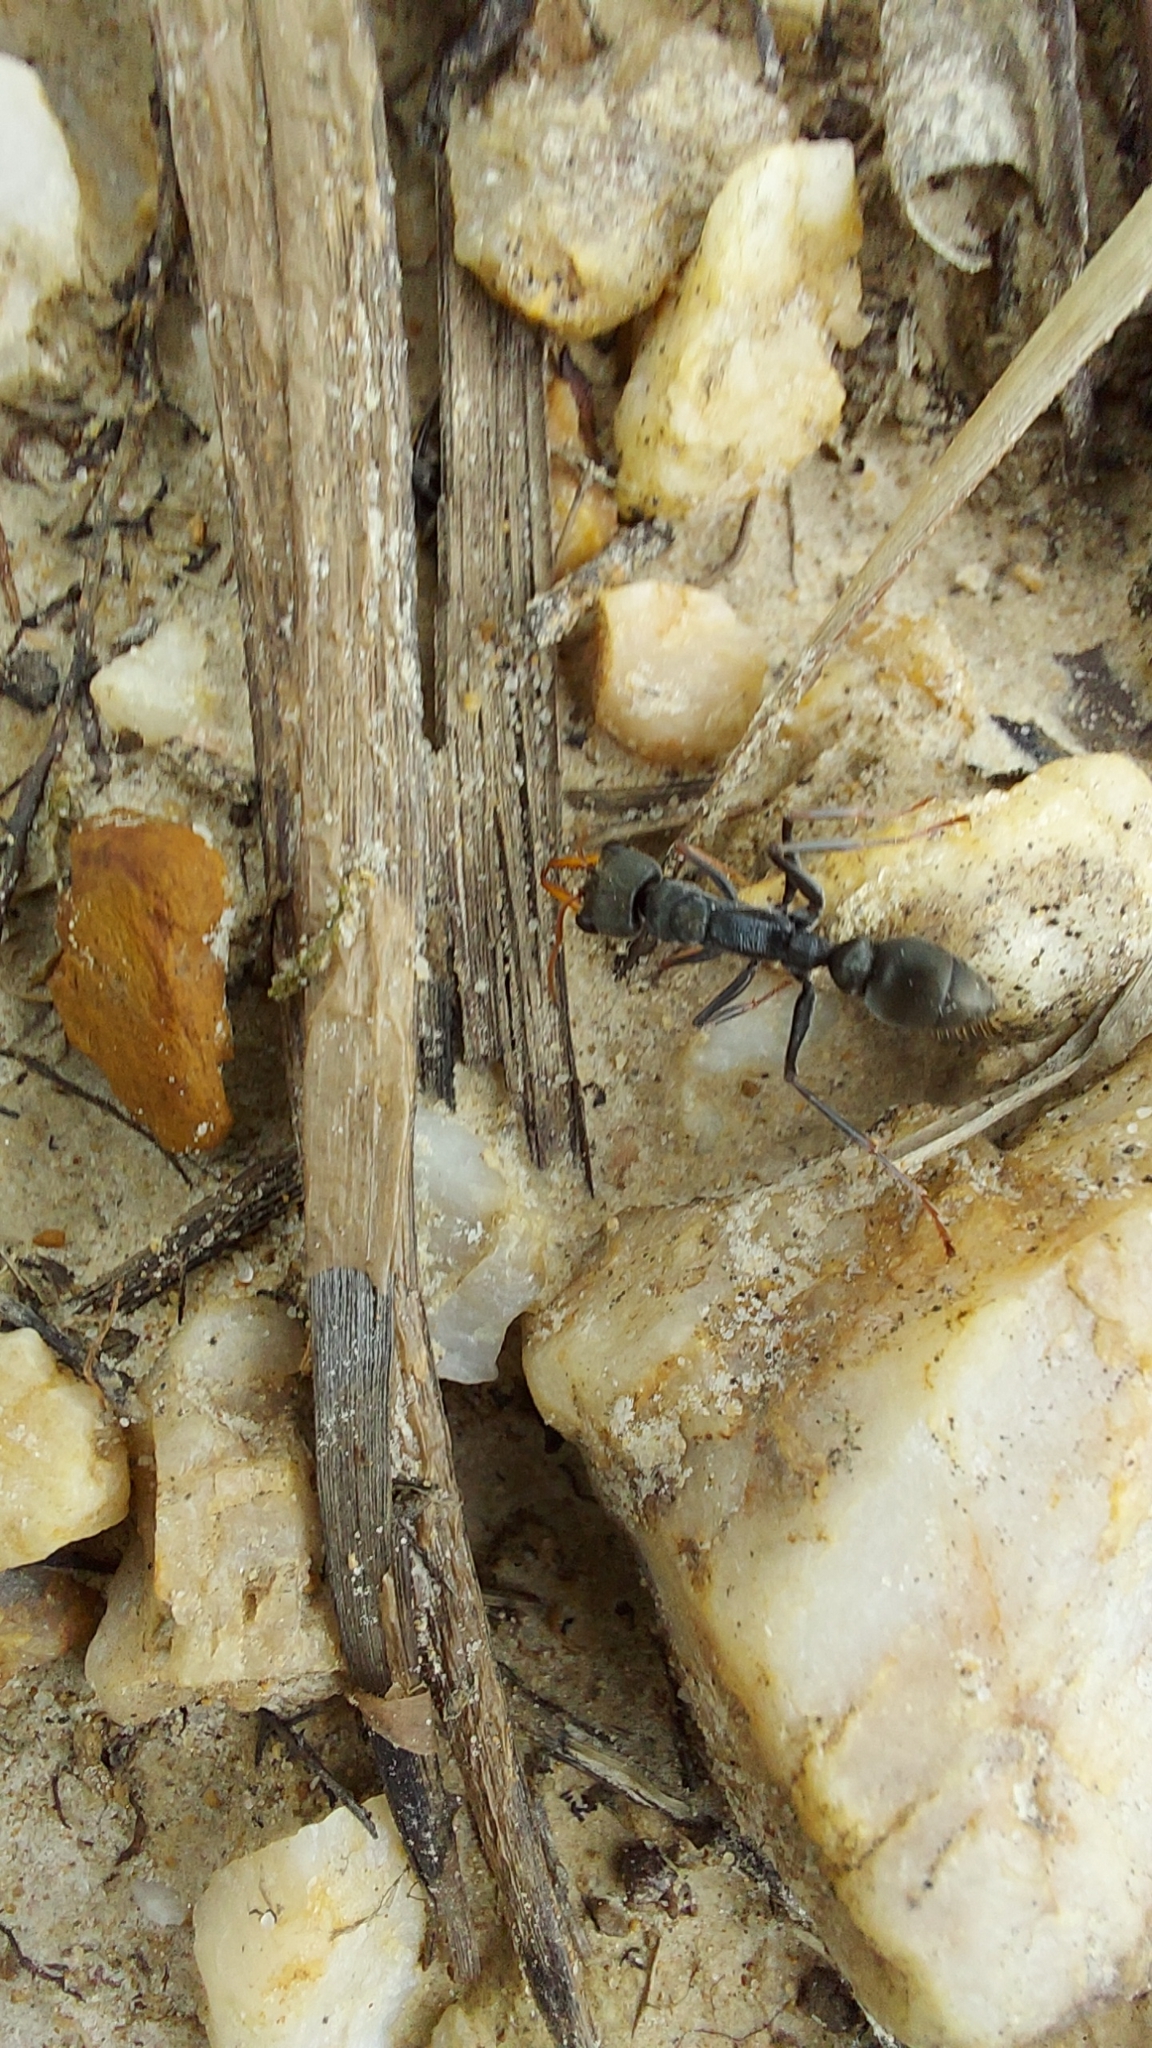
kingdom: Animalia
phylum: Arthropoda
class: Insecta
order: Hymenoptera
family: Formicidae
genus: Myrmecia
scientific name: Myrmecia pilosula
